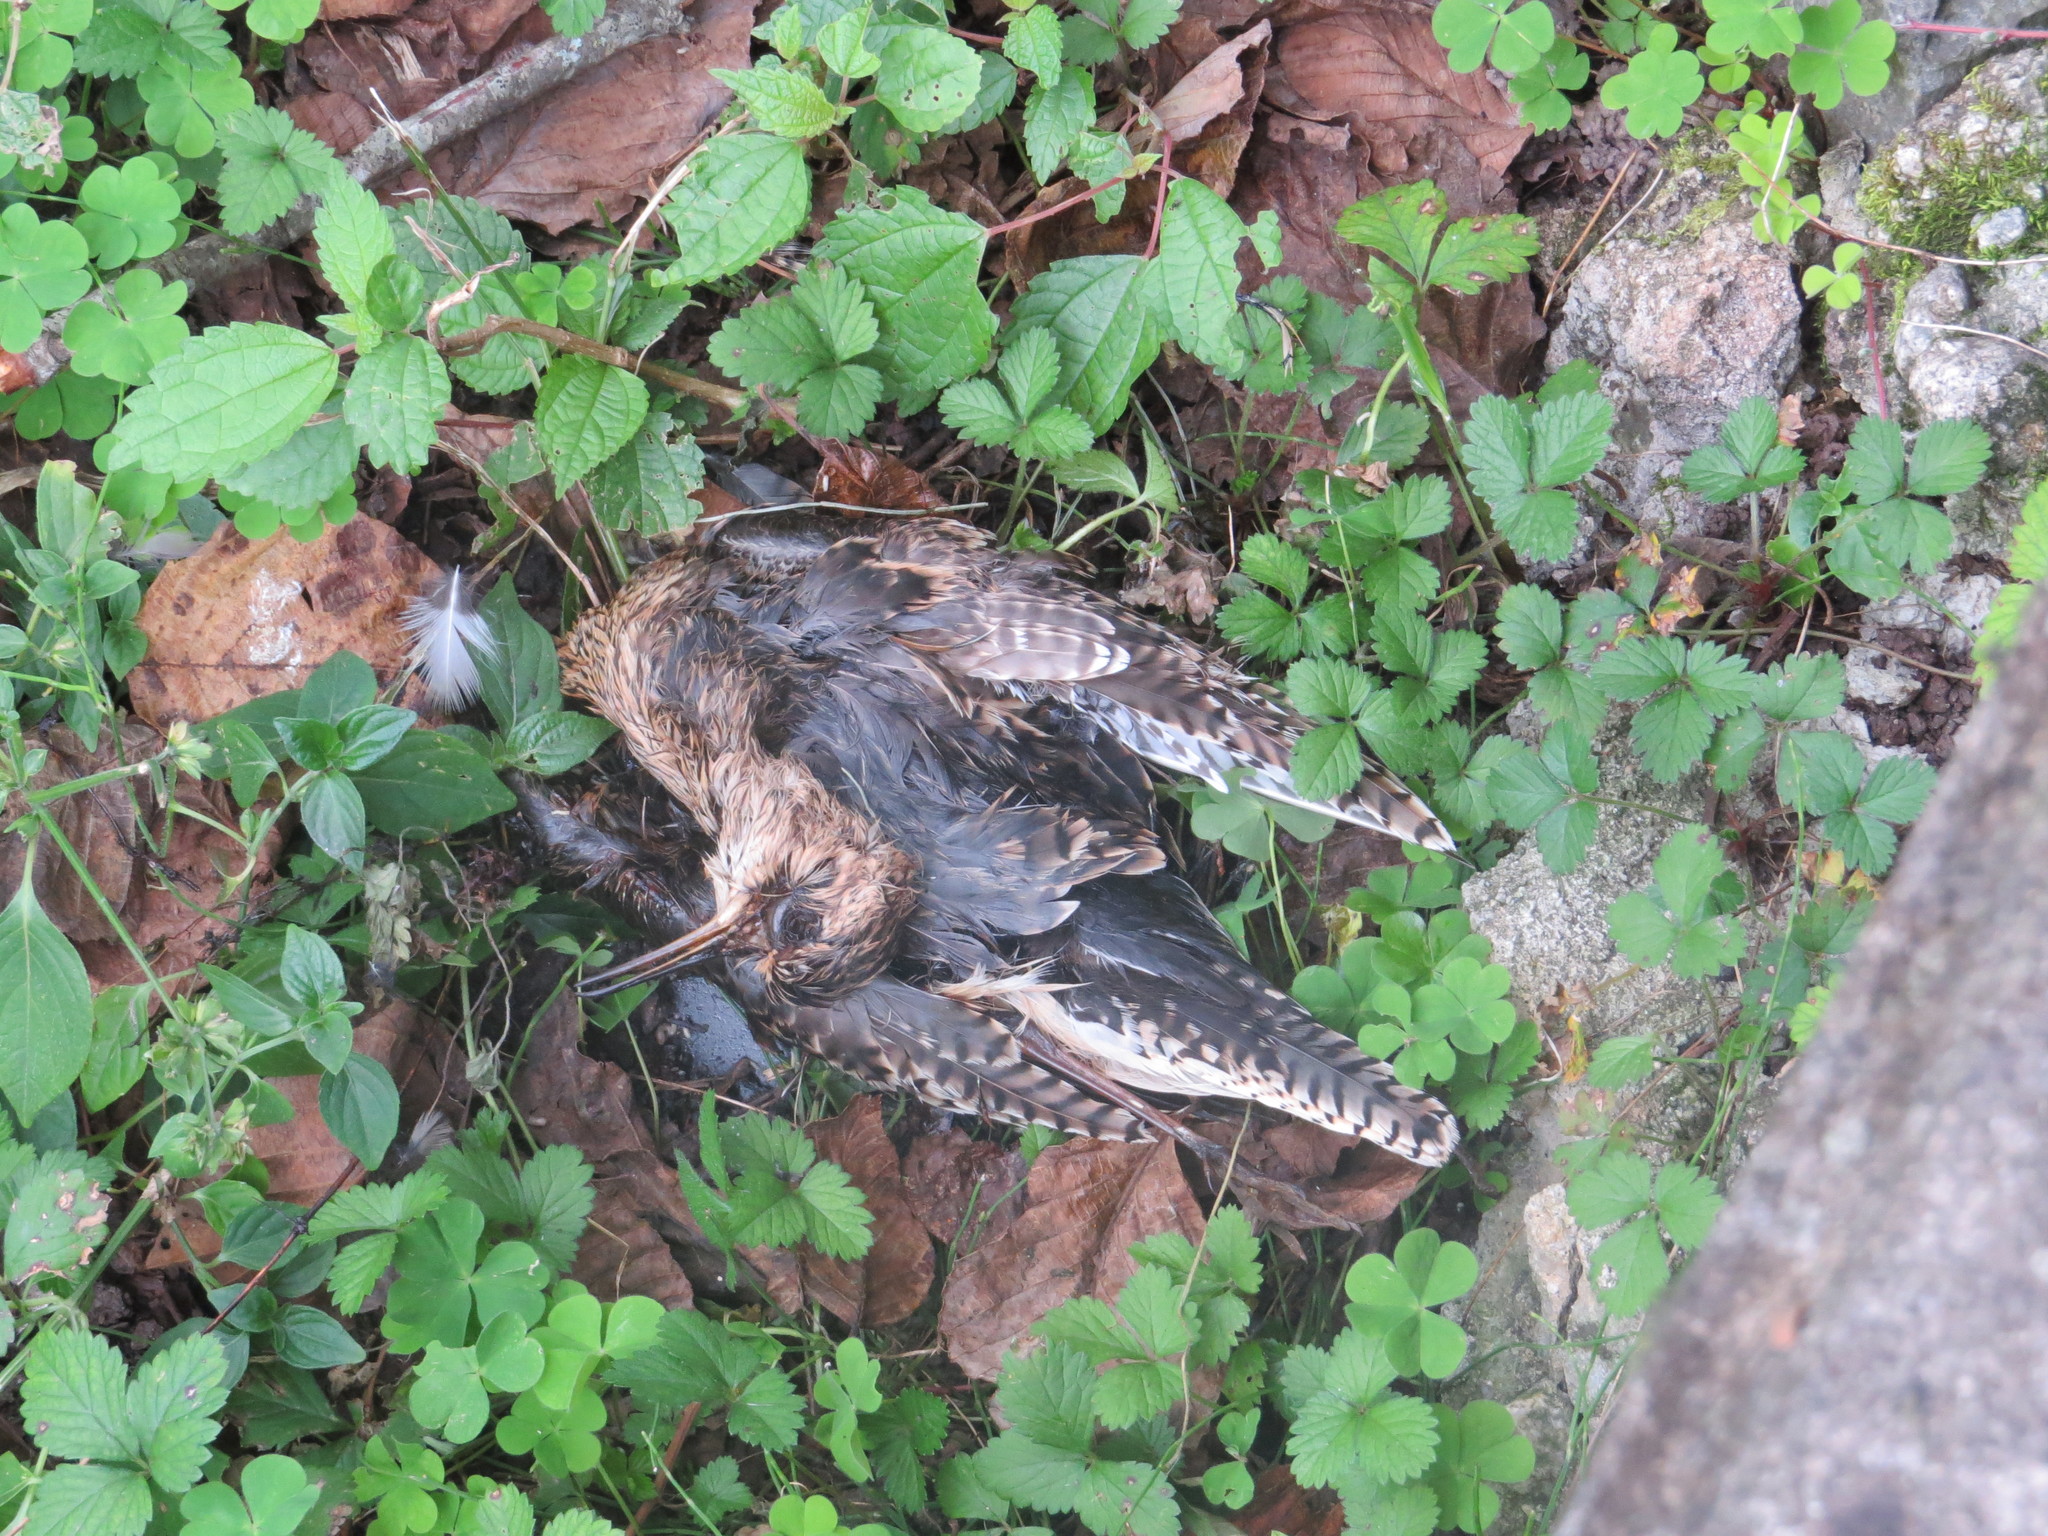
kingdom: Animalia
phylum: Chordata
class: Aves
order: Charadriiformes
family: Scolopacidae
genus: Bartramia
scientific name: Bartramia longicauda
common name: Upland sandpiper
